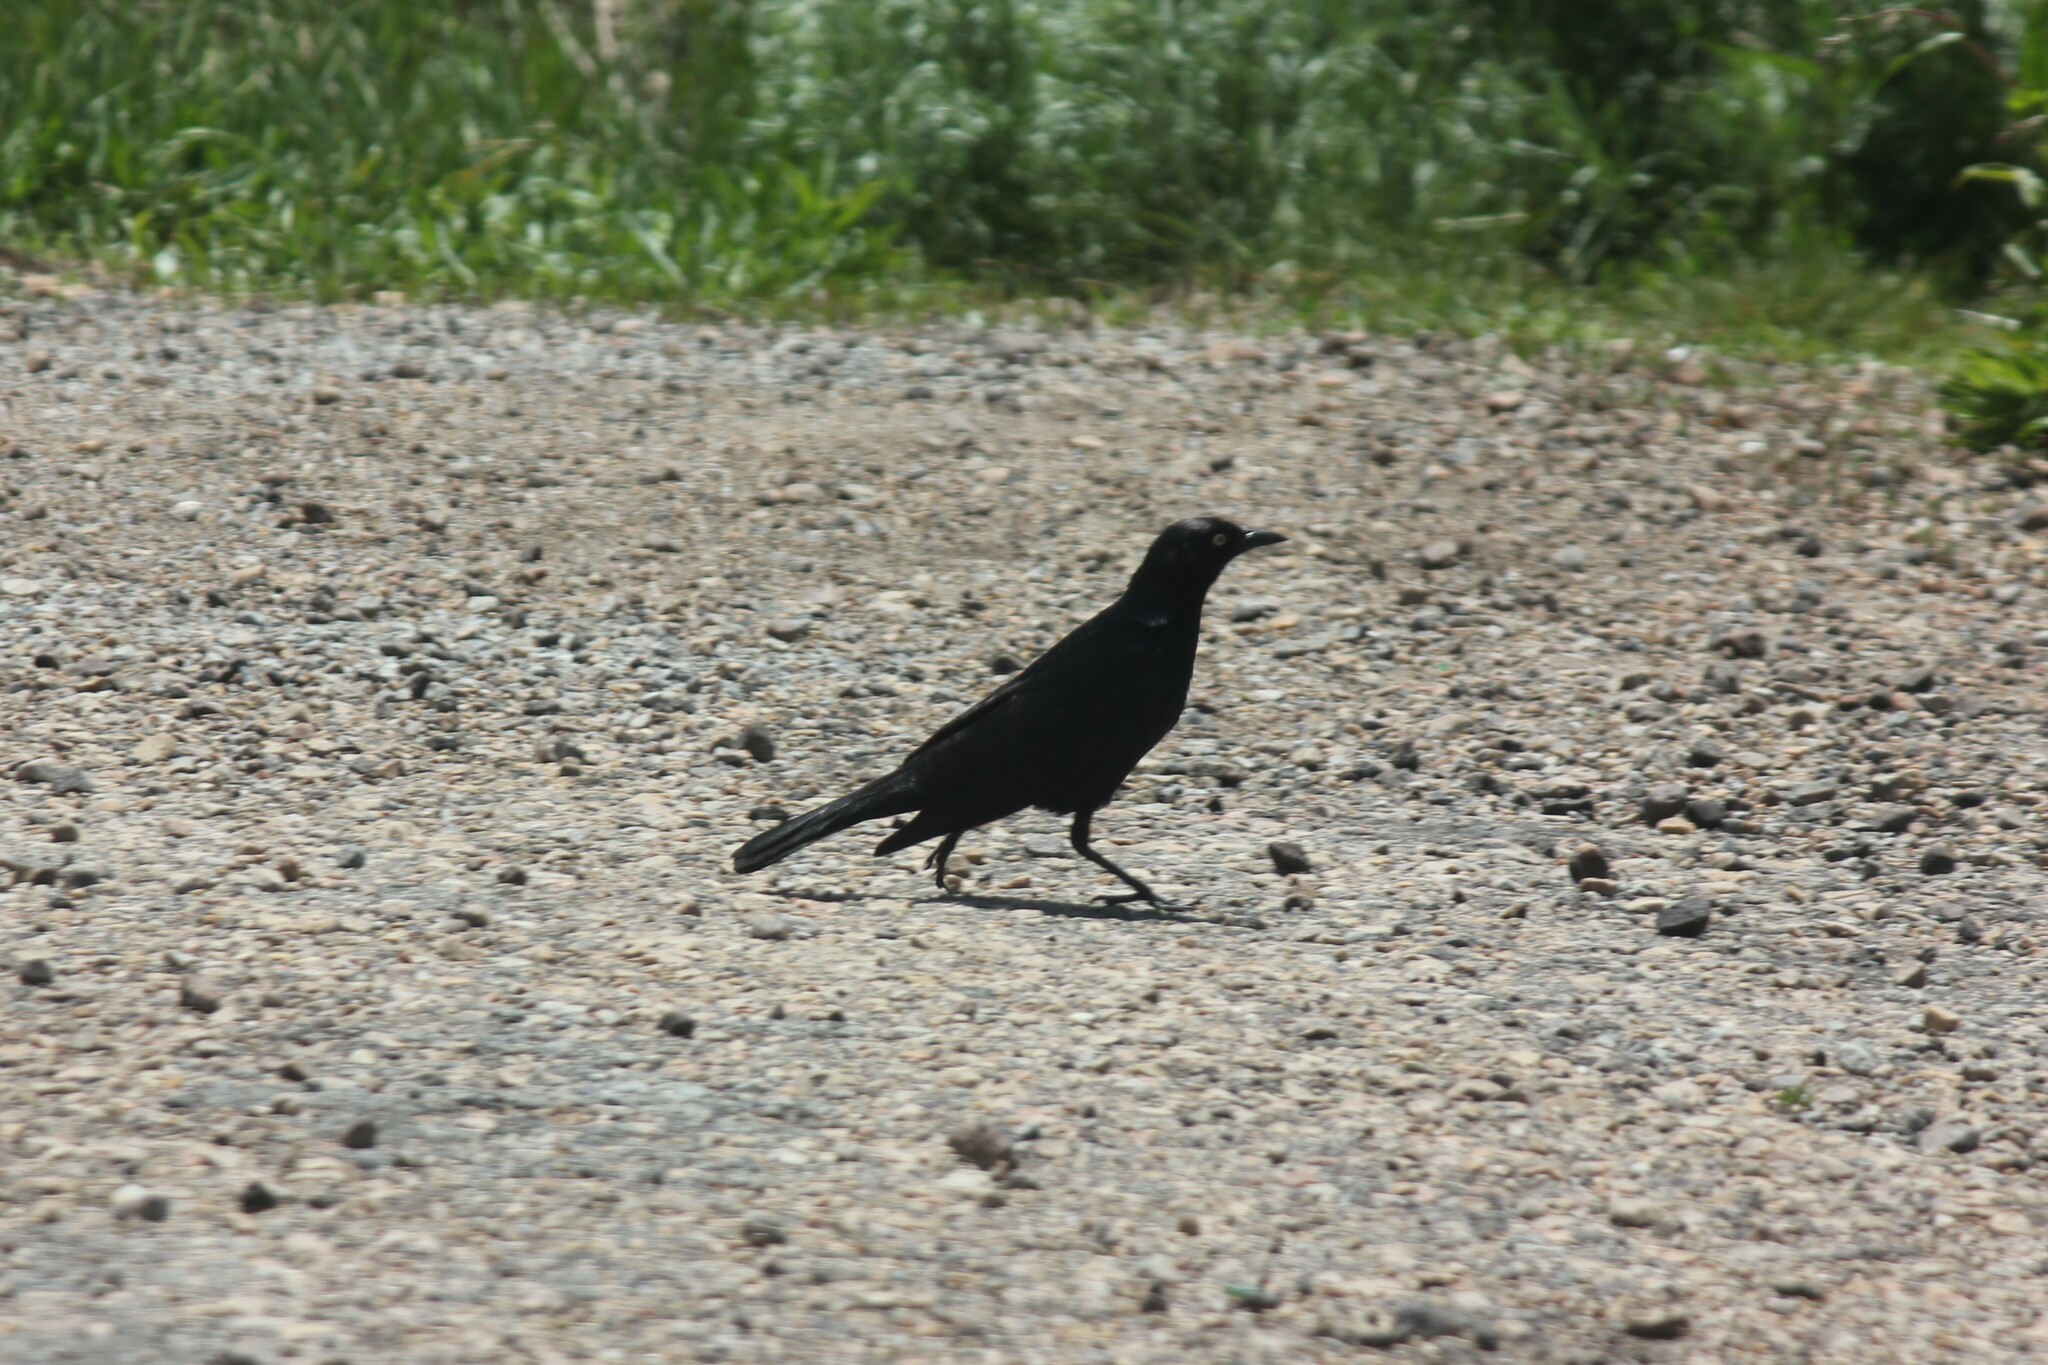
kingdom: Animalia
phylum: Chordata
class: Aves
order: Passeriformes
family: Icteridae
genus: Euphagus
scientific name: Euphagus cyanocephalus
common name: Brewer's blackbird
